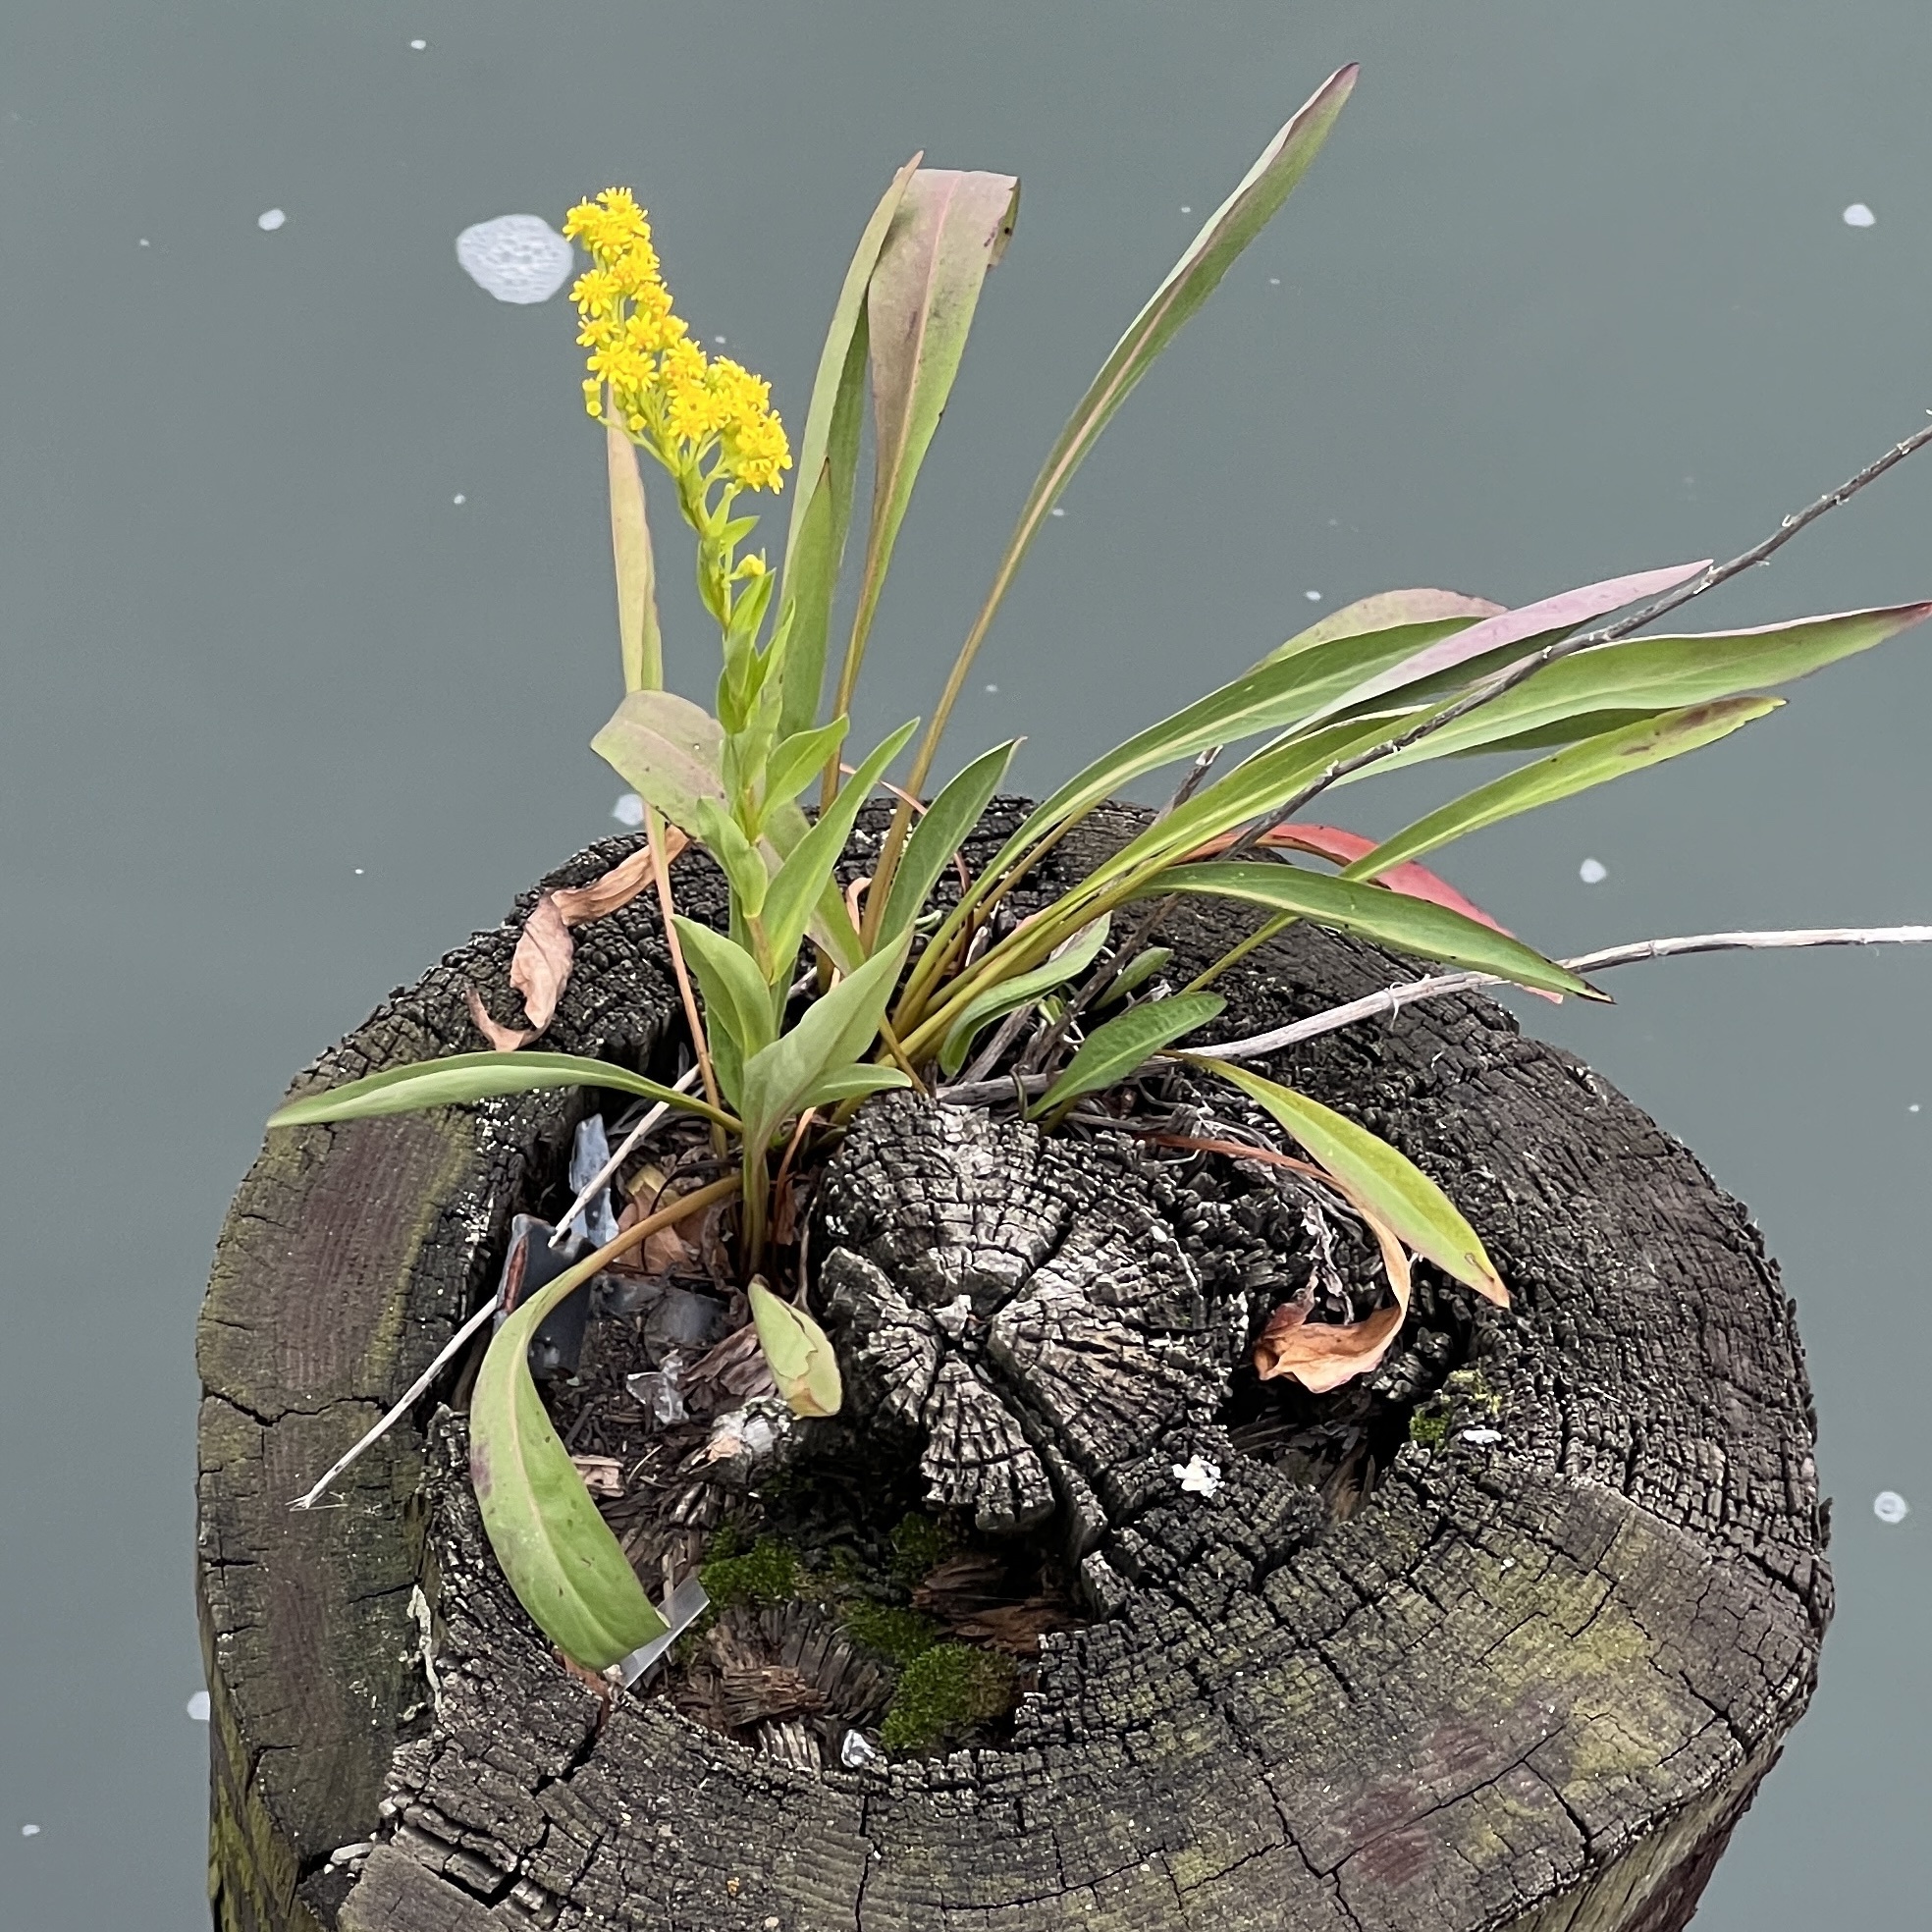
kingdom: Plantae
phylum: Tracheophyta
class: Magnoliopsida
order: Asterales
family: Asteraceae
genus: Solidago
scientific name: Solidago sempervirens
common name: Salt-marsh goldenrod
